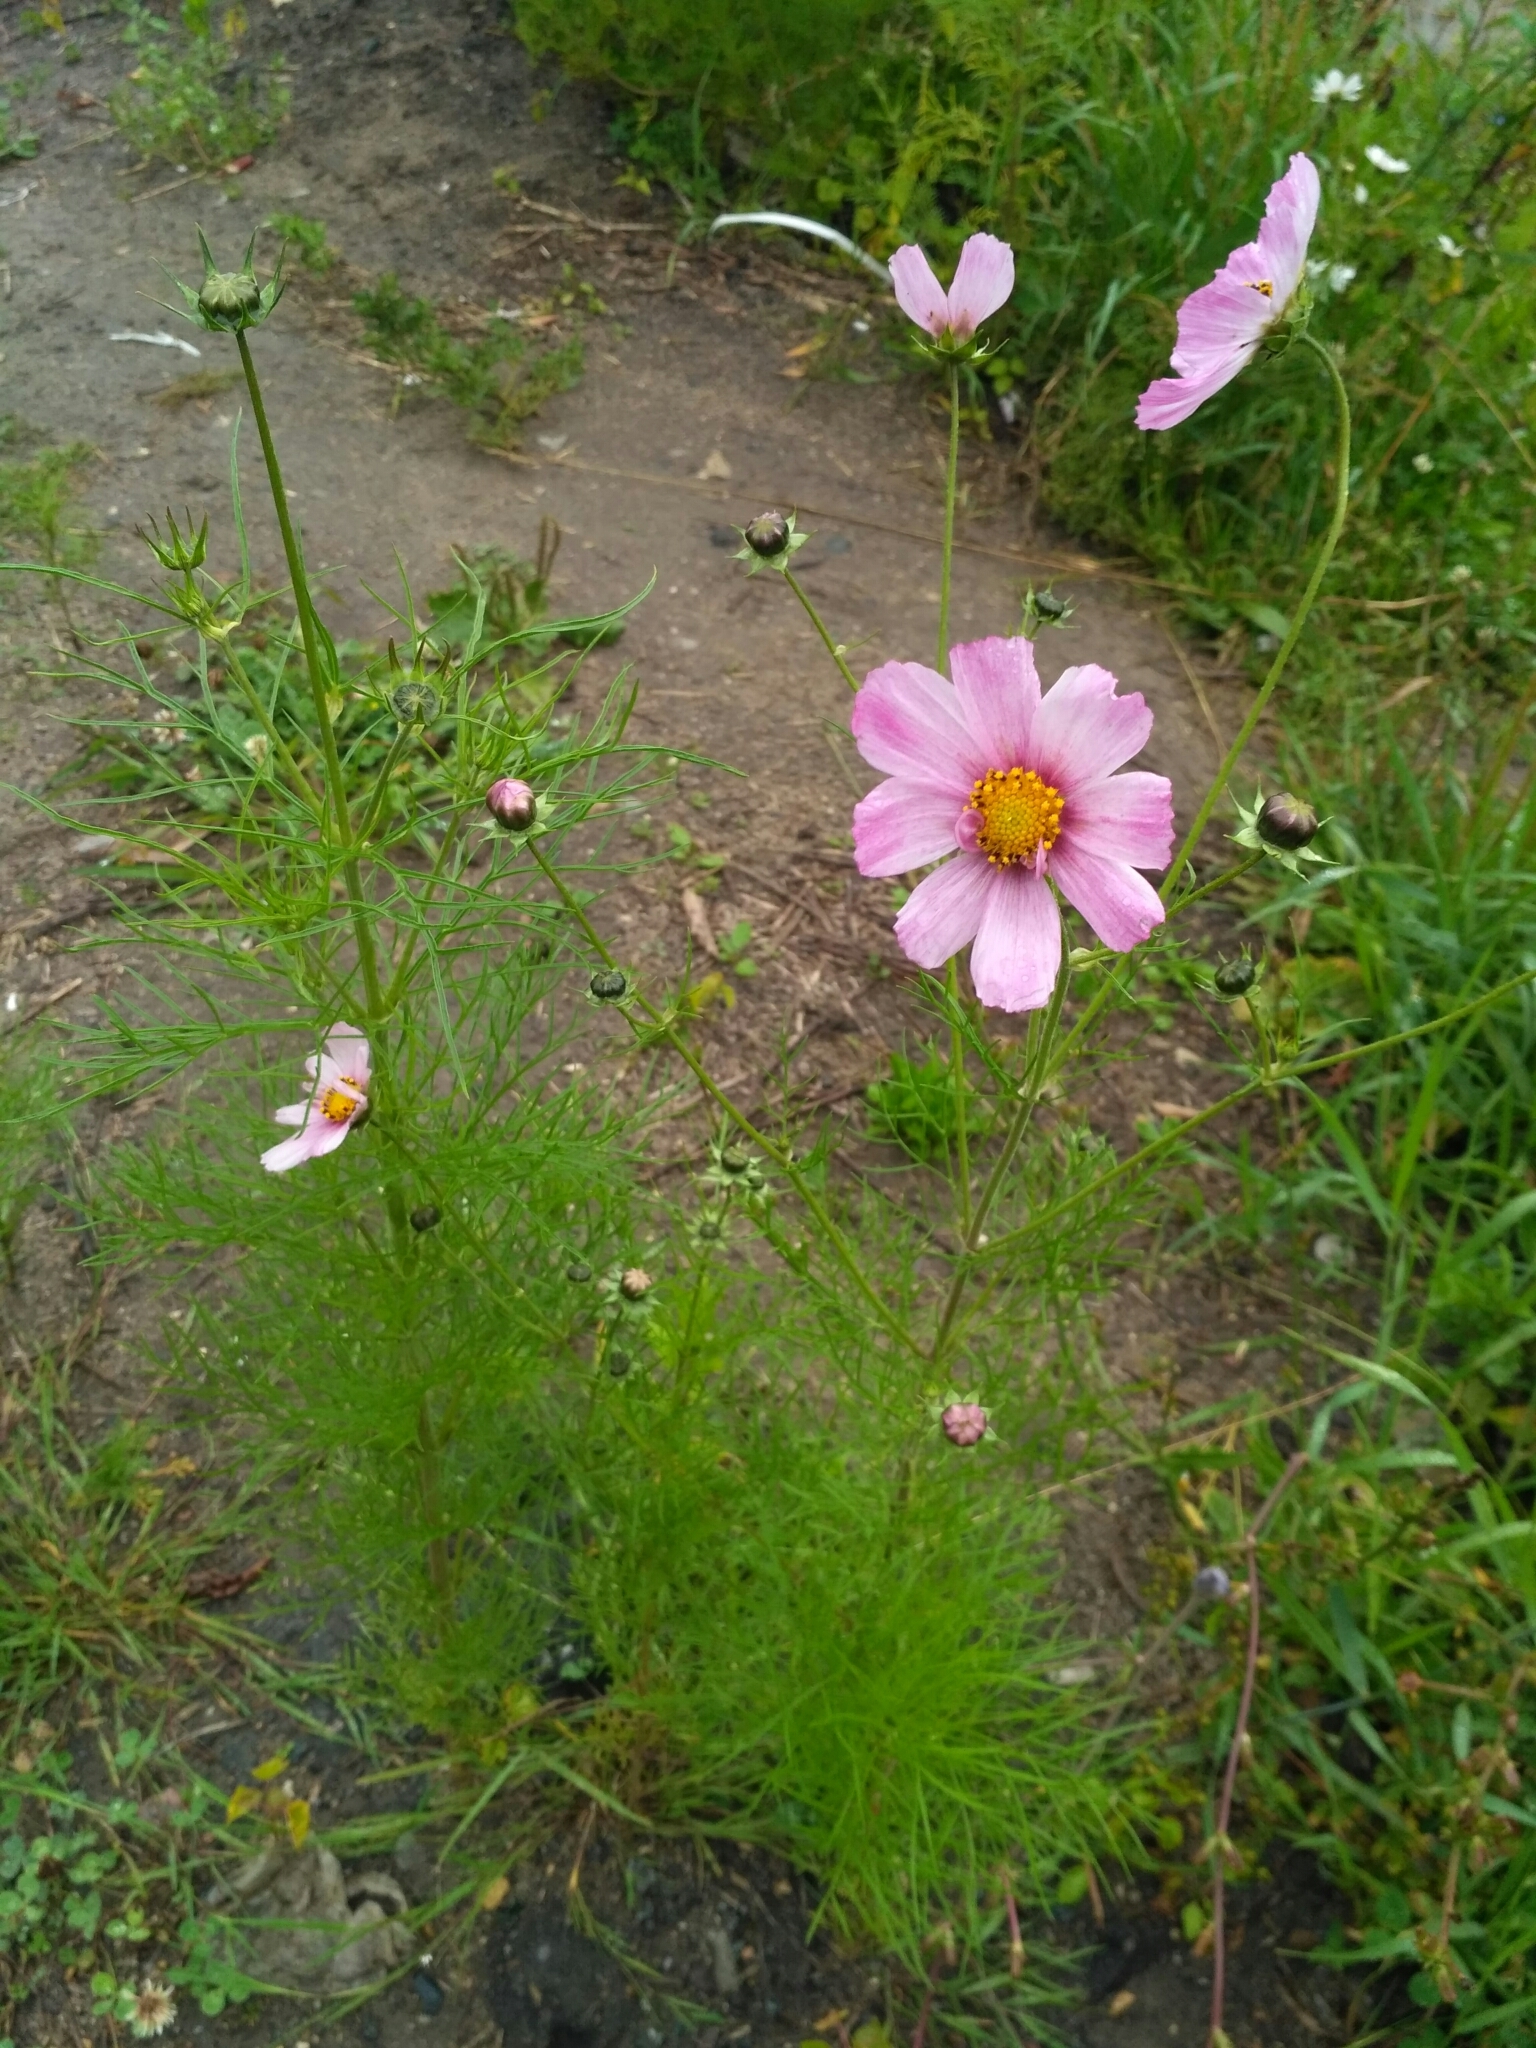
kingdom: Plantae
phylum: Tracheophyta
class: Magnoliopsida
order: Asterales
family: Asteraceae
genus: Cosmos
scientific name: Cosmos bipinnatus
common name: Garden cosmos
